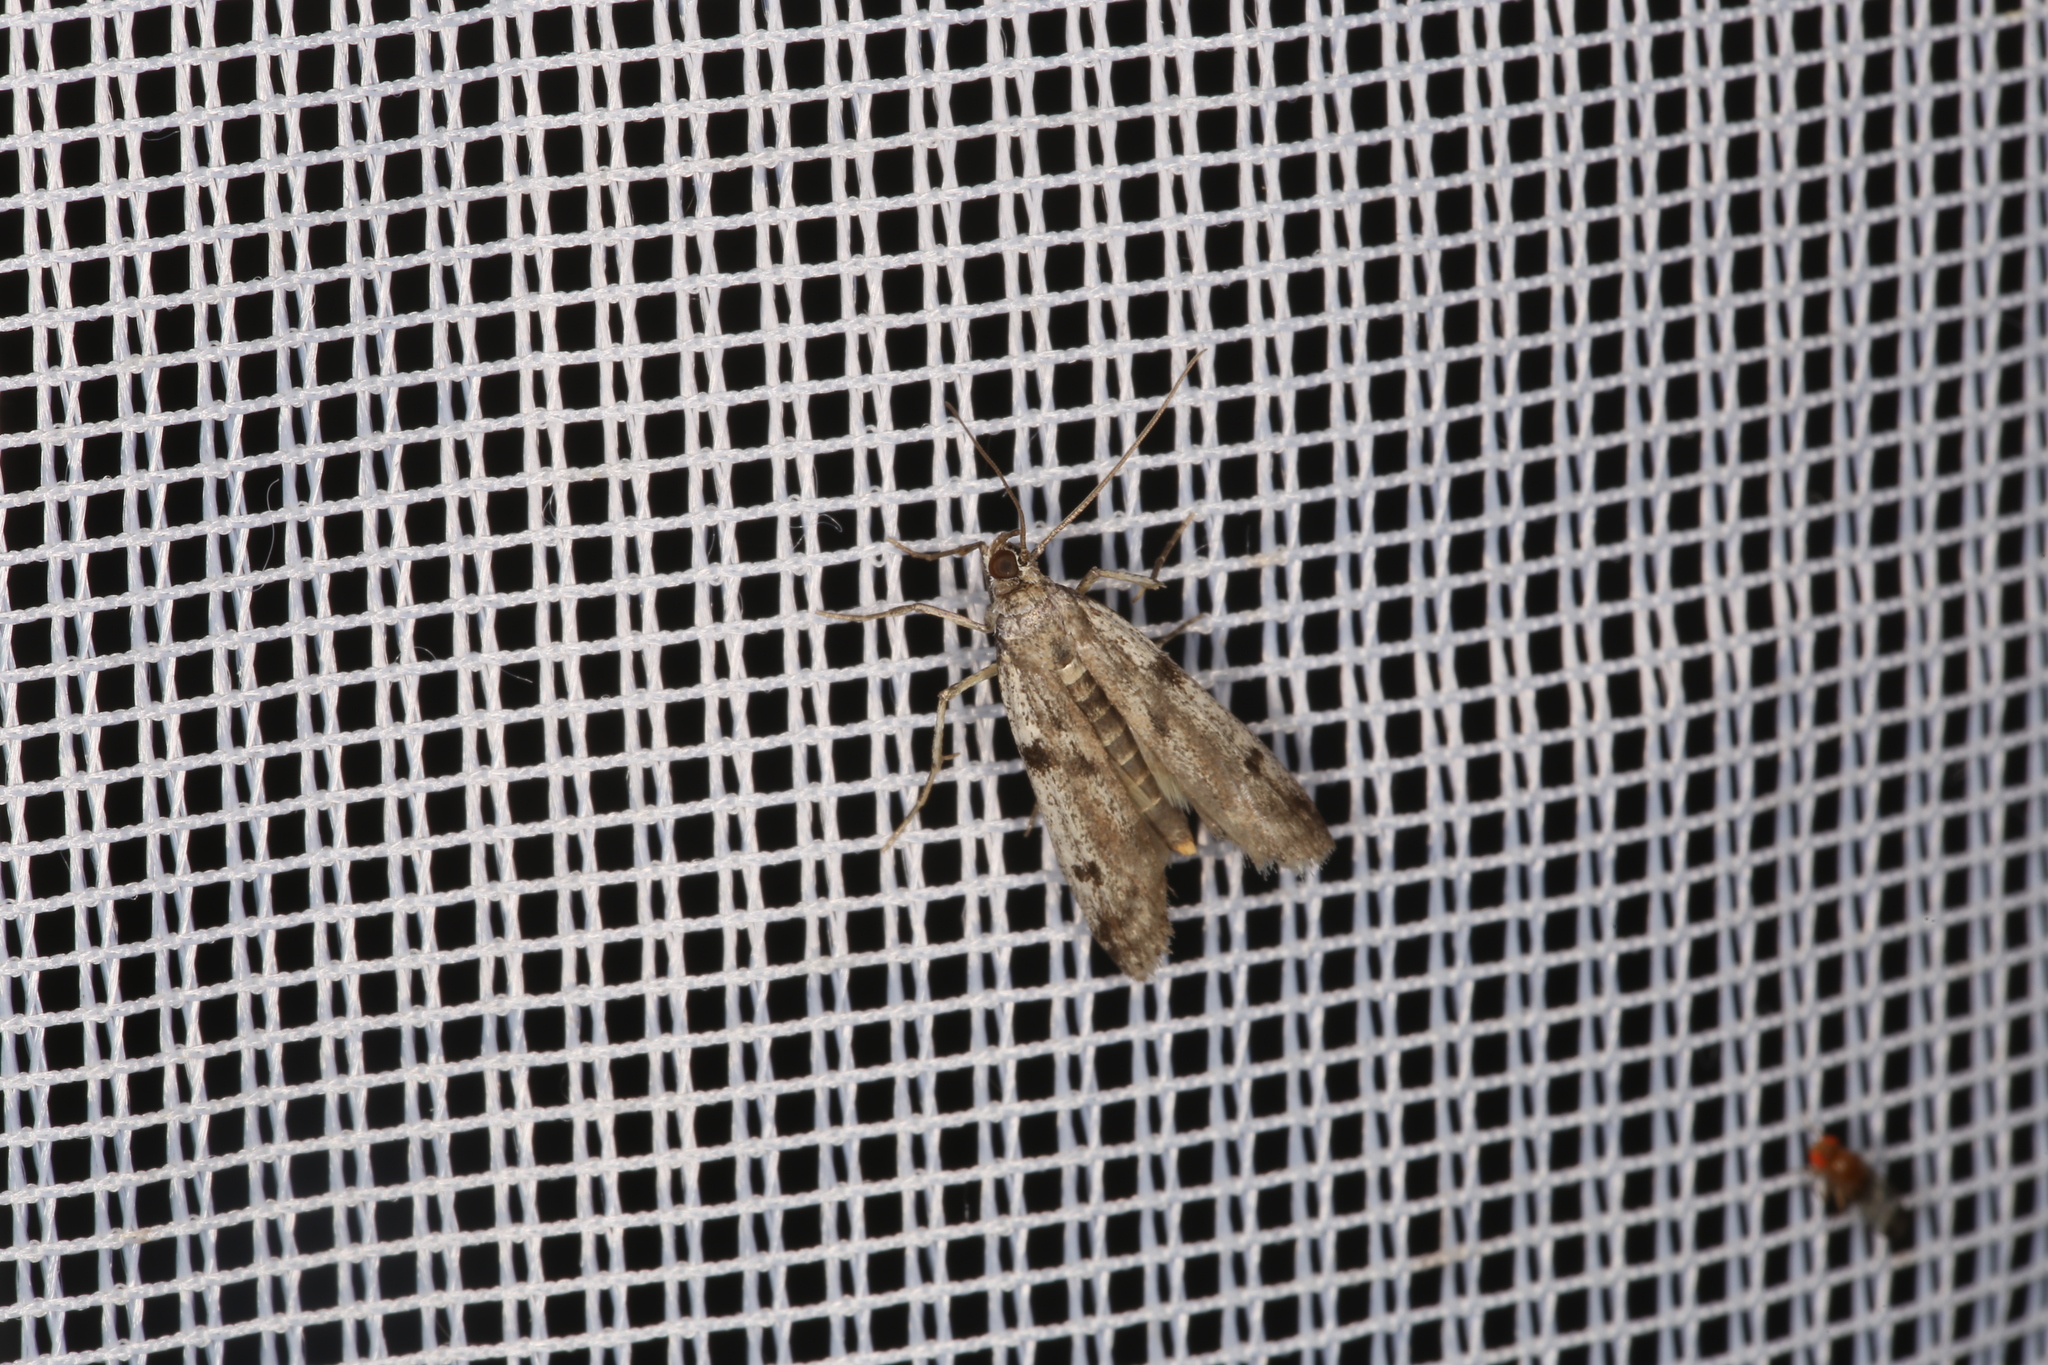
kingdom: Animalia
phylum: Arthropoda
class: Insecta
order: Lepidoptera
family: Pyralidae
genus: Phycitodes
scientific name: Phycitodes binaevella
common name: Ermine knot-horn
